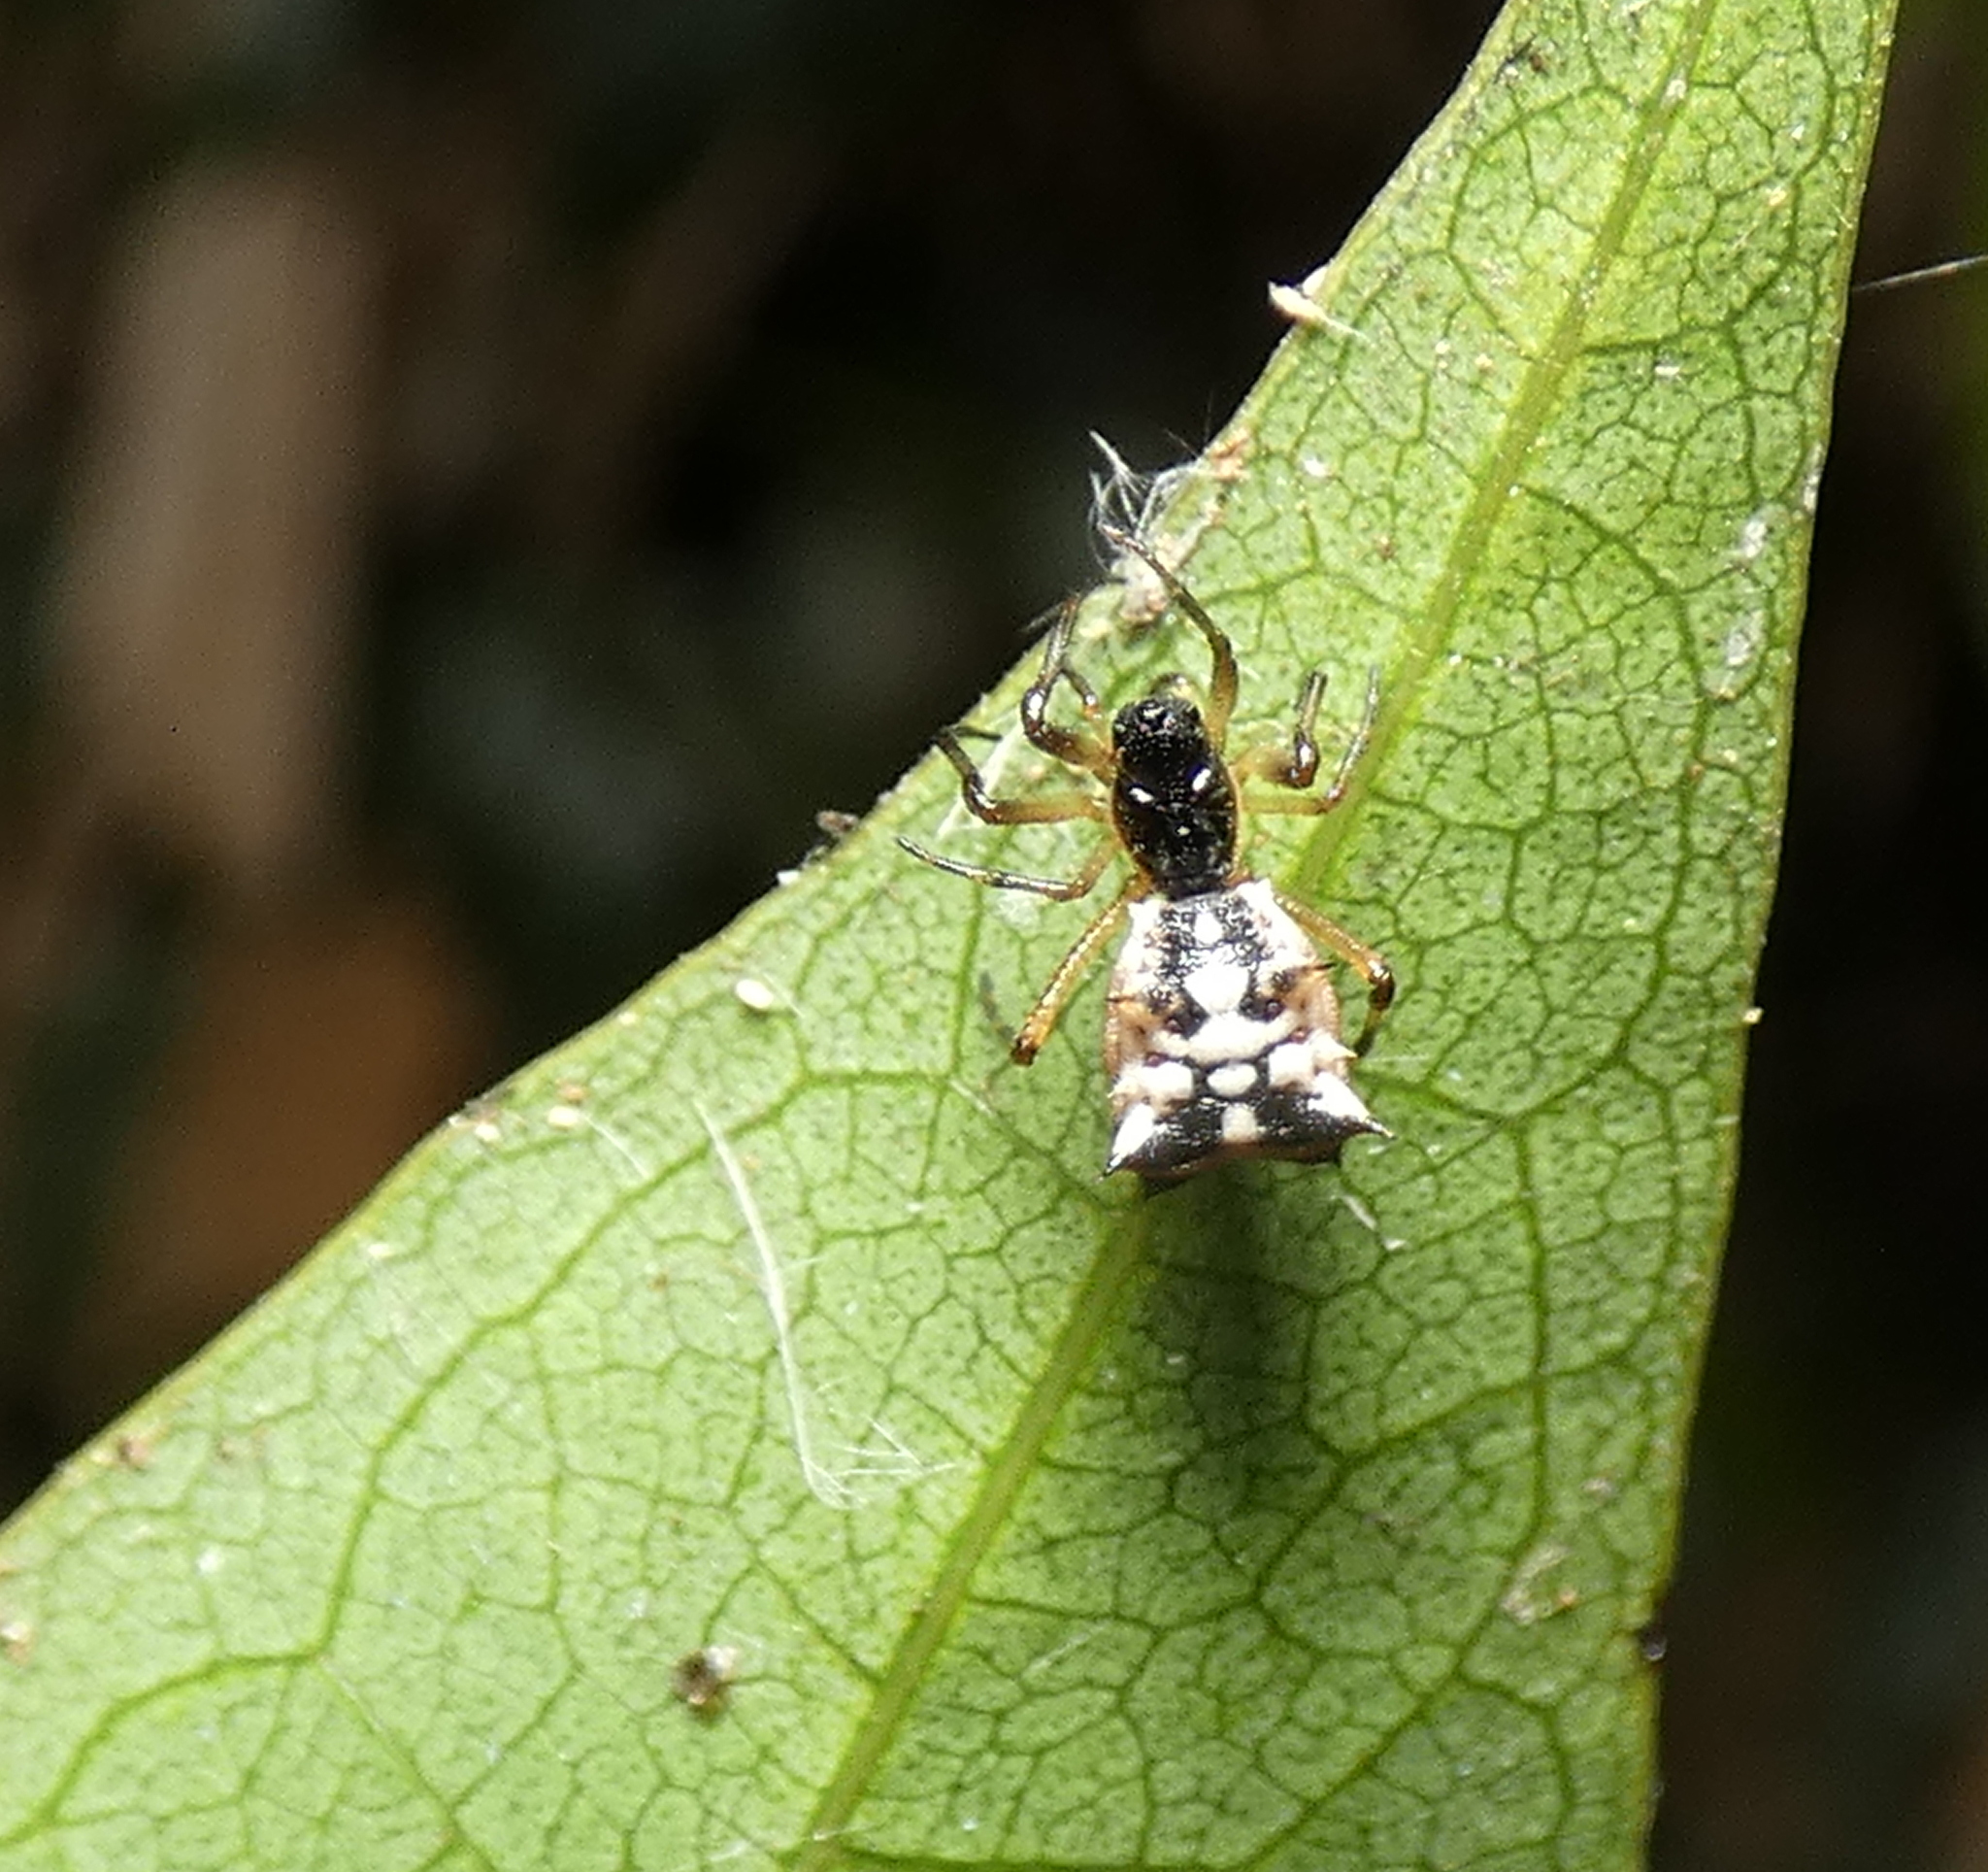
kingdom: Animalia
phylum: Arthropoda
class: Arachnida
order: Araneae
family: Araneidae
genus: Micrathena
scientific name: Micrathena picta
